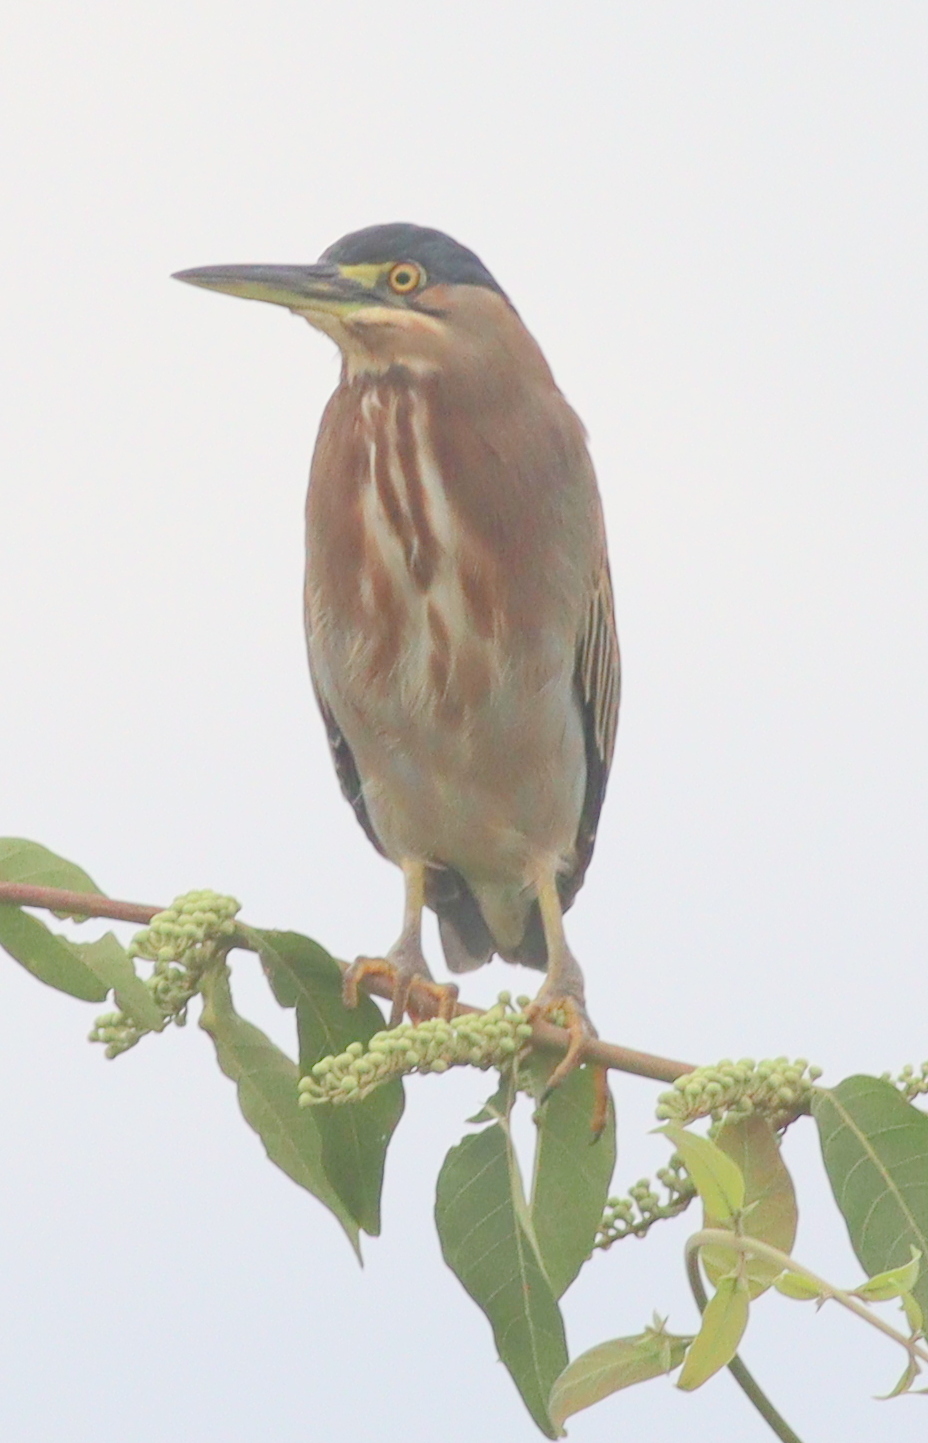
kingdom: Animalia
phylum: Chordata
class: Aves
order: Pelecaniformes
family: Ardeidae
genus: Butorides
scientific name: Butorides striata
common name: Striated heron
